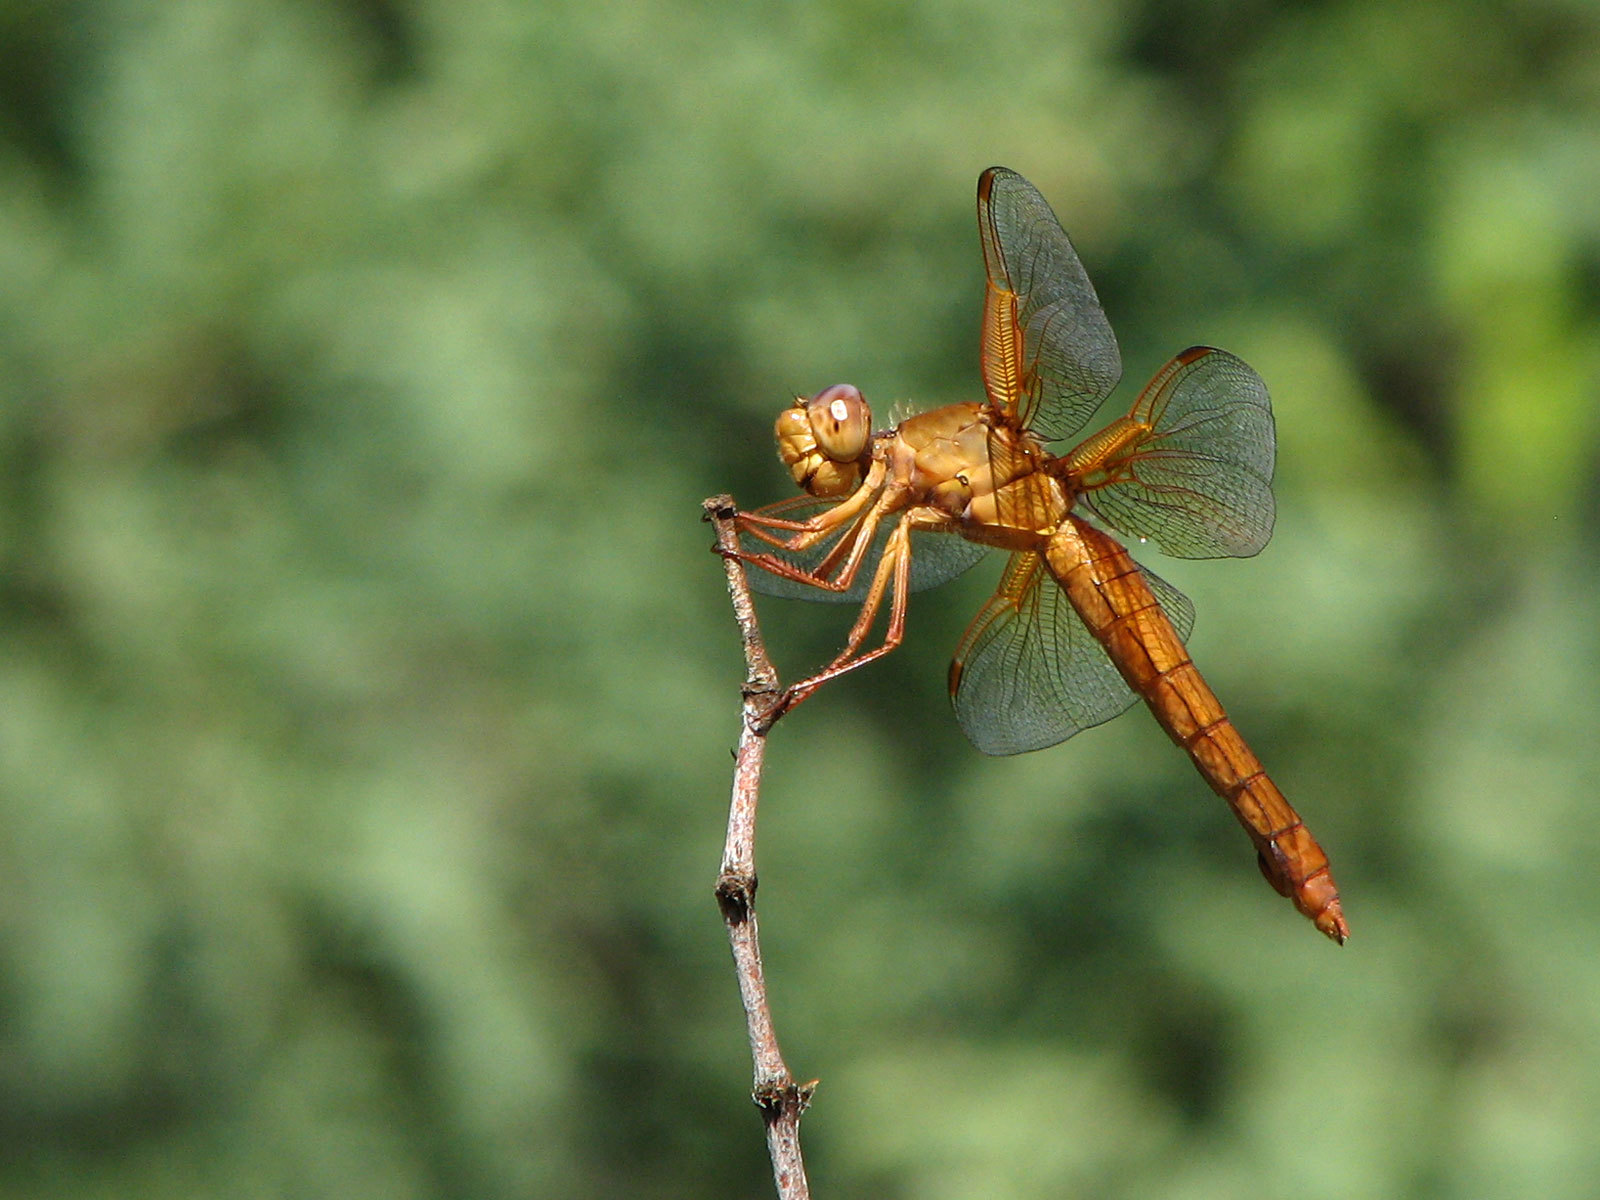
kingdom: Animalia
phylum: Arthropoda
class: Insecta
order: Odonata
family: Libellulidae
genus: Libellula
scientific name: Libellula saturata
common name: Flame skimmer
